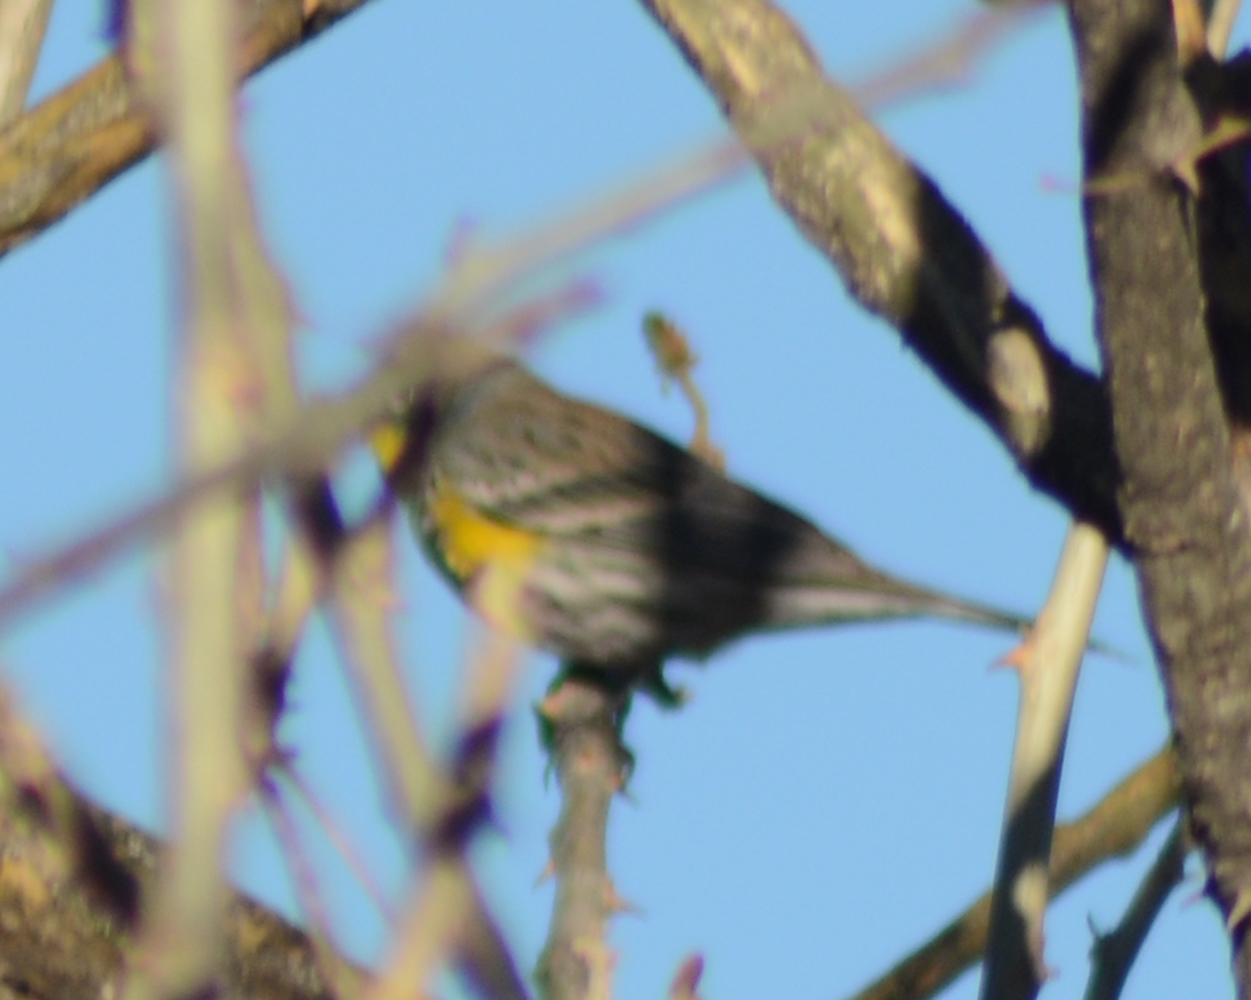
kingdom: Animalia
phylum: Chordata
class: Aves
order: Passeriformes
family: Parulidae
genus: Setophaga
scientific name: Setophaga auduboni
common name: Audubon's warbler
